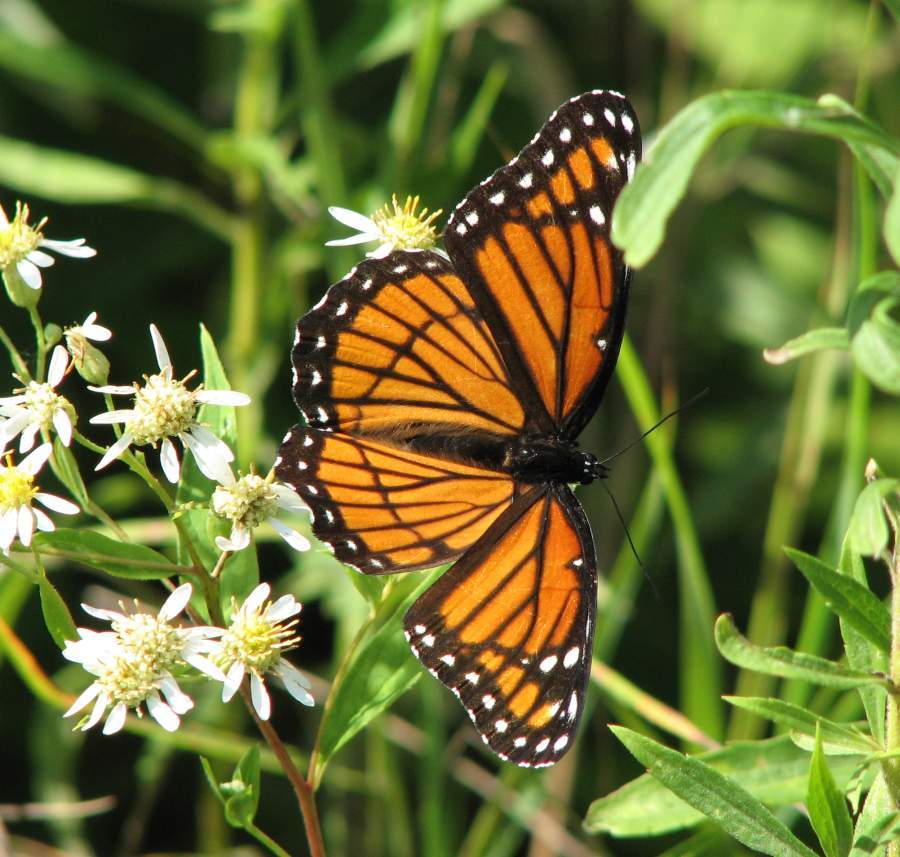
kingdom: Animalia
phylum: Arthropoda
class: Insecta
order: Lepidoptera
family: Nymphalidae
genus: Limenitis
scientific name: Limenitis archippus
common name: Viceroy
